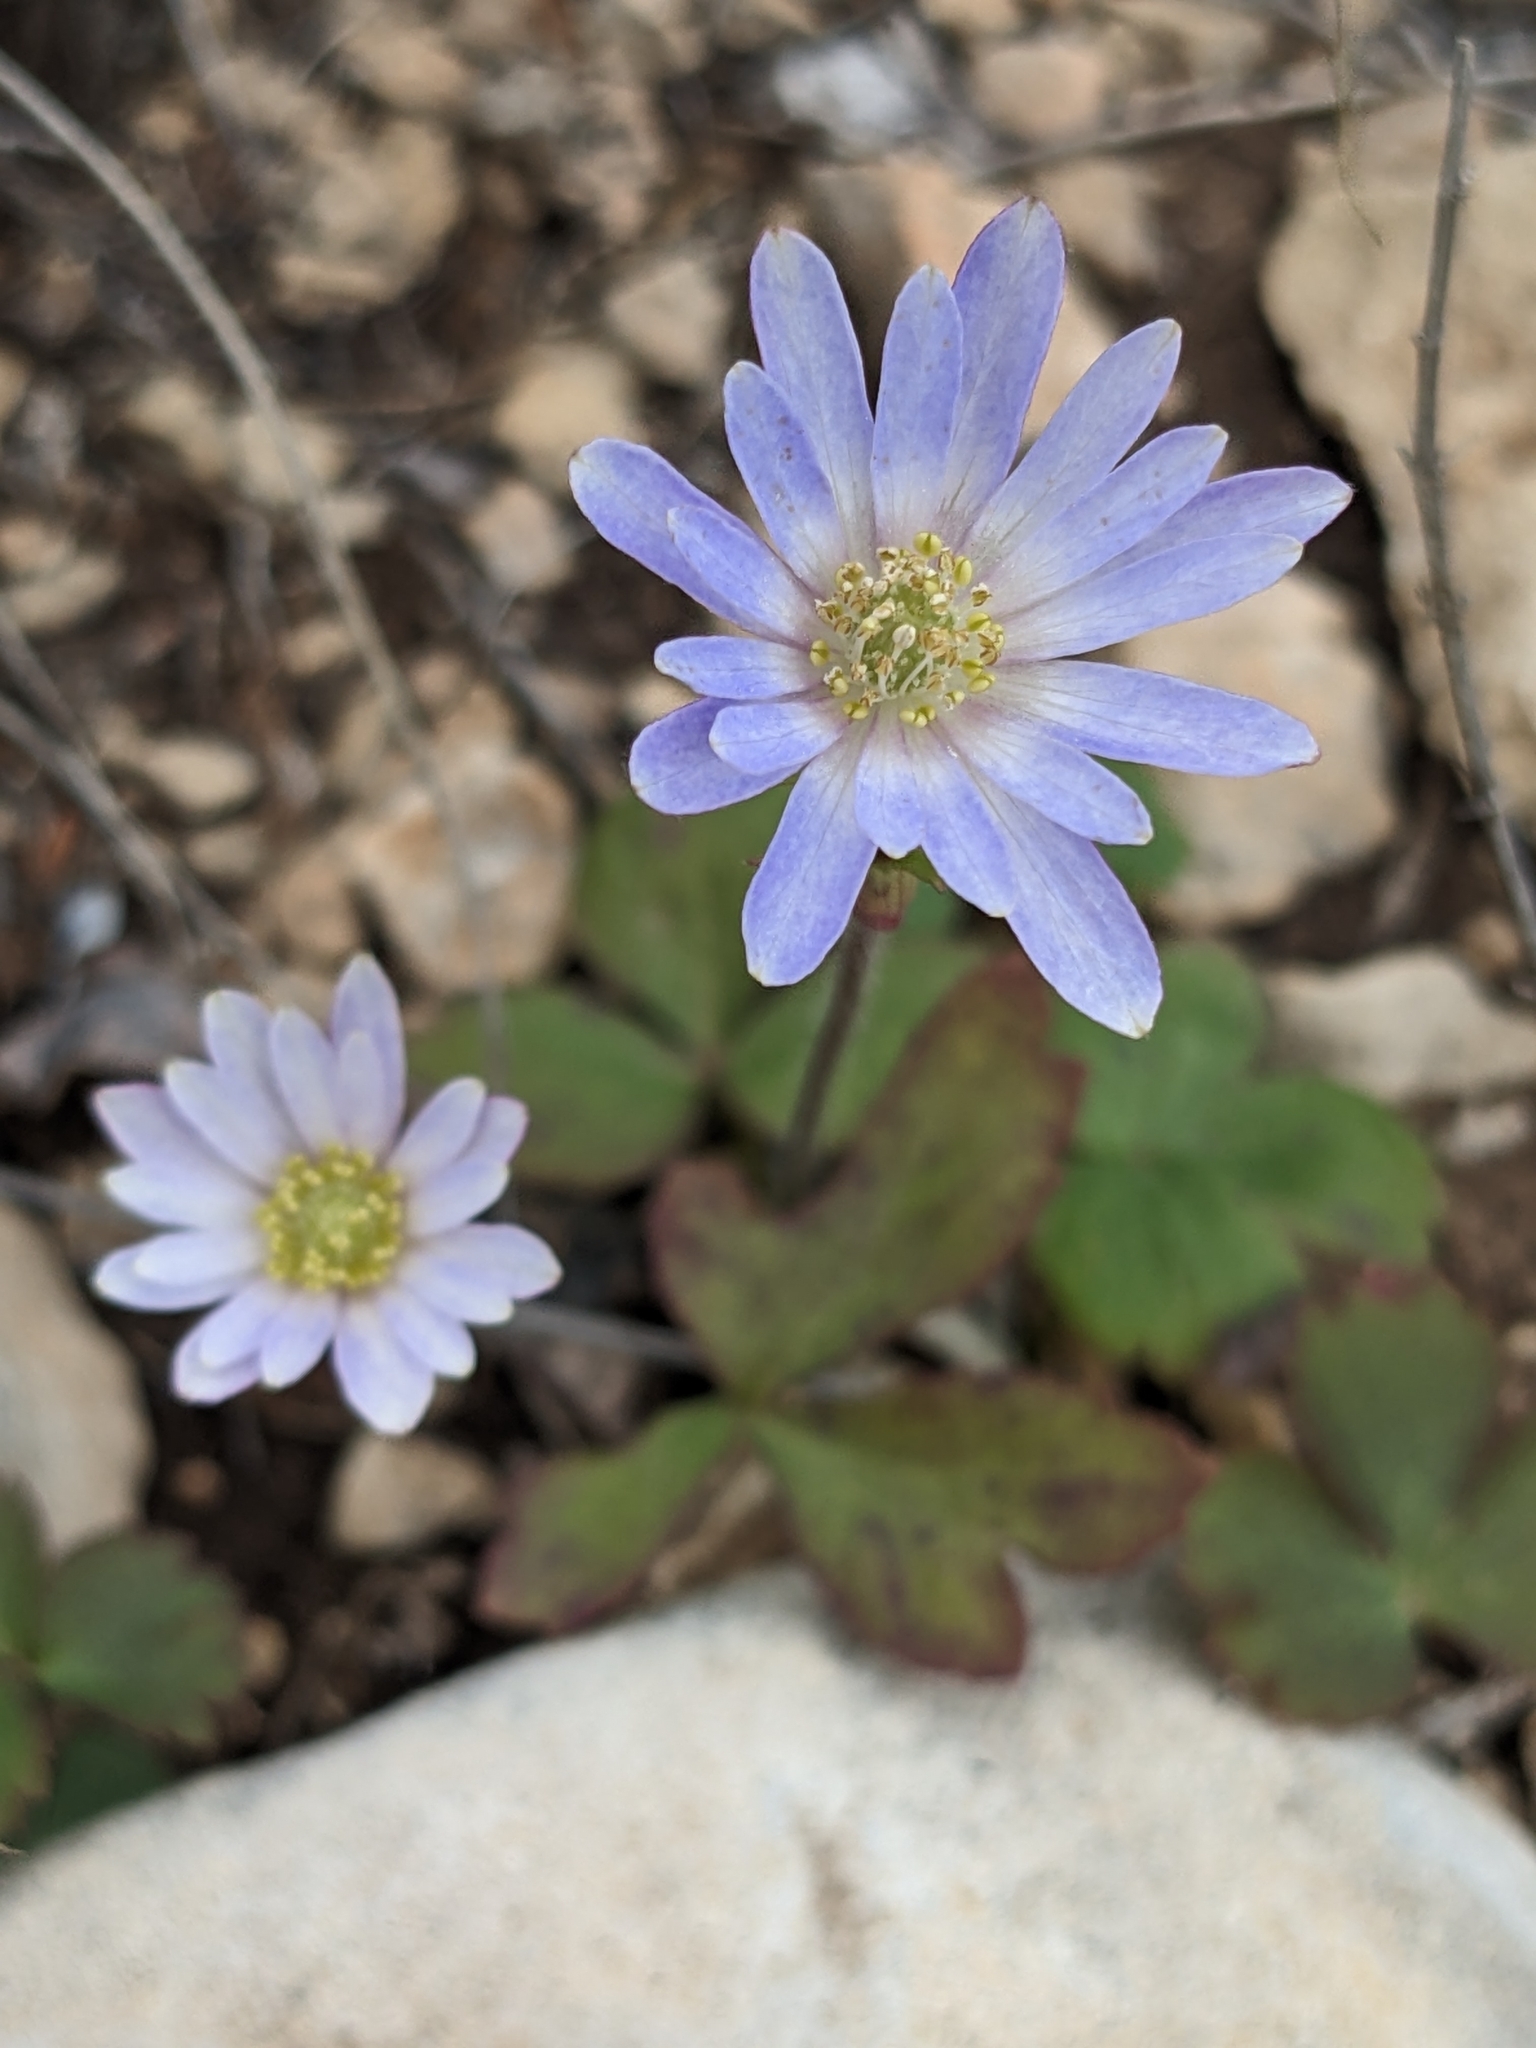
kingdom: Plantae
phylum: Tracheophyta
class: Magnoliopsida
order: Ranunculales
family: Ranunculaceae
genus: Anemone
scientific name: Anemone berlandieri
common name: Ten-petal anemone
